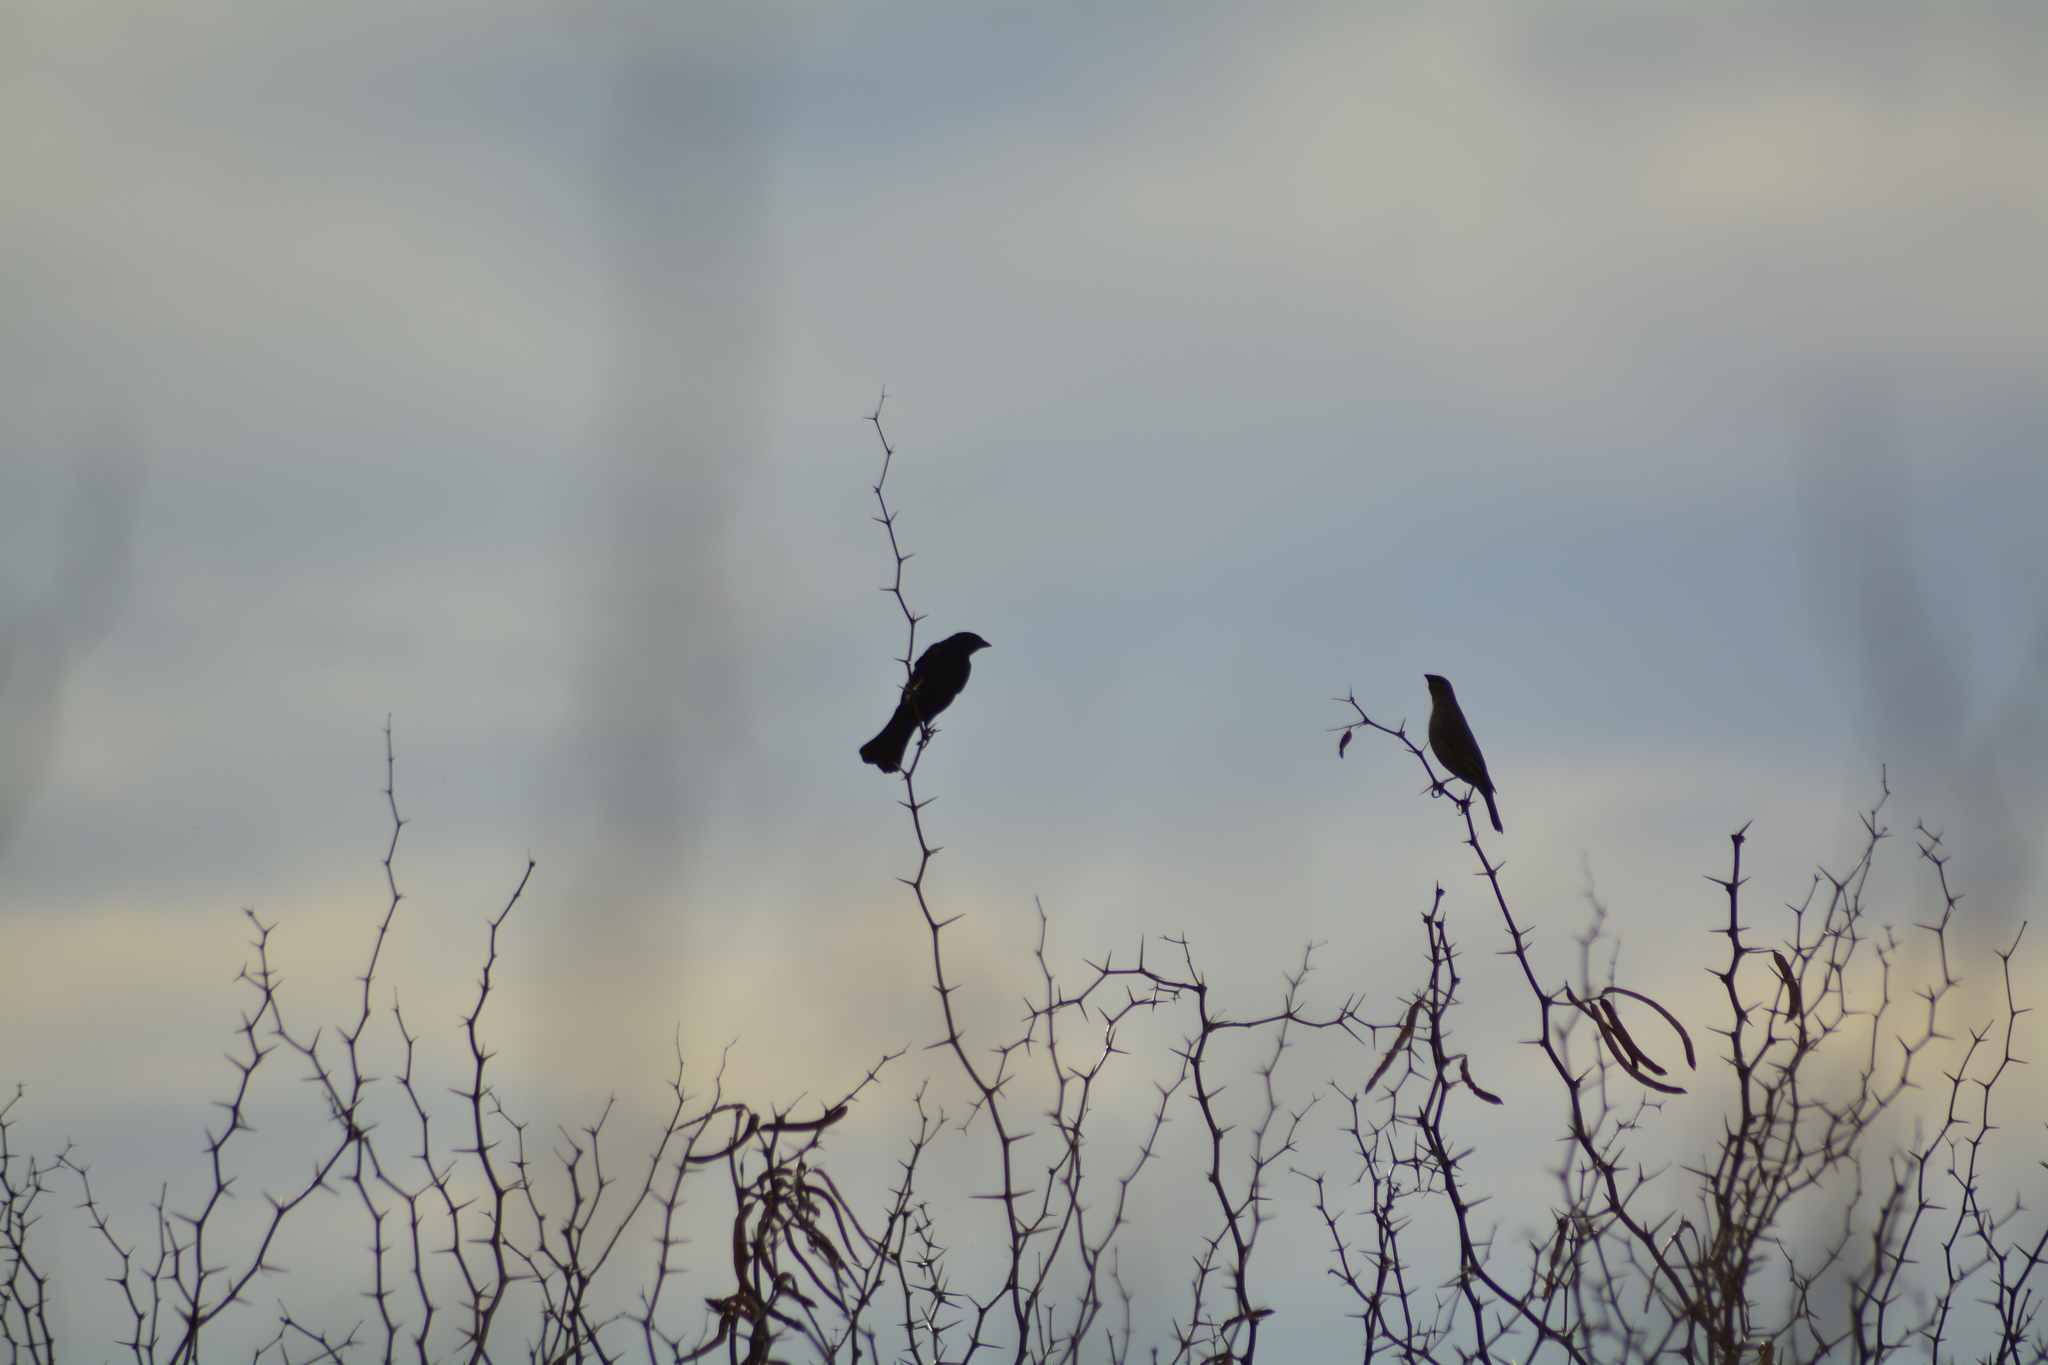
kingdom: Animalia
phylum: Chordata
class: Aves
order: Passeriformes
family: Icteridae
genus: Molothrus
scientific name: Molothrus bonariensis
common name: Shiny cowbird
